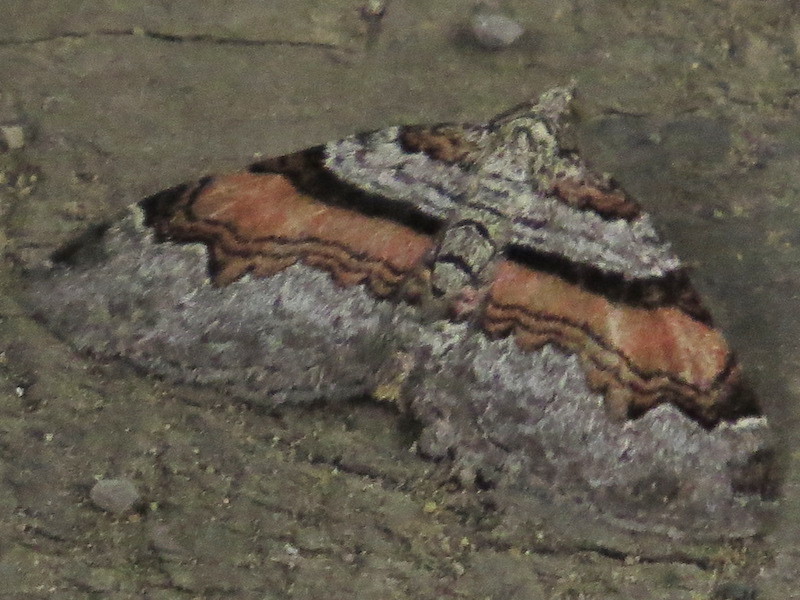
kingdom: Animalia
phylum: Arthropoda
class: Insecta
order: Lepidoptera
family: Geometridae
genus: Xanthorhoe
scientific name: Xanthorhoe labradorensis
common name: Labrador carpet
